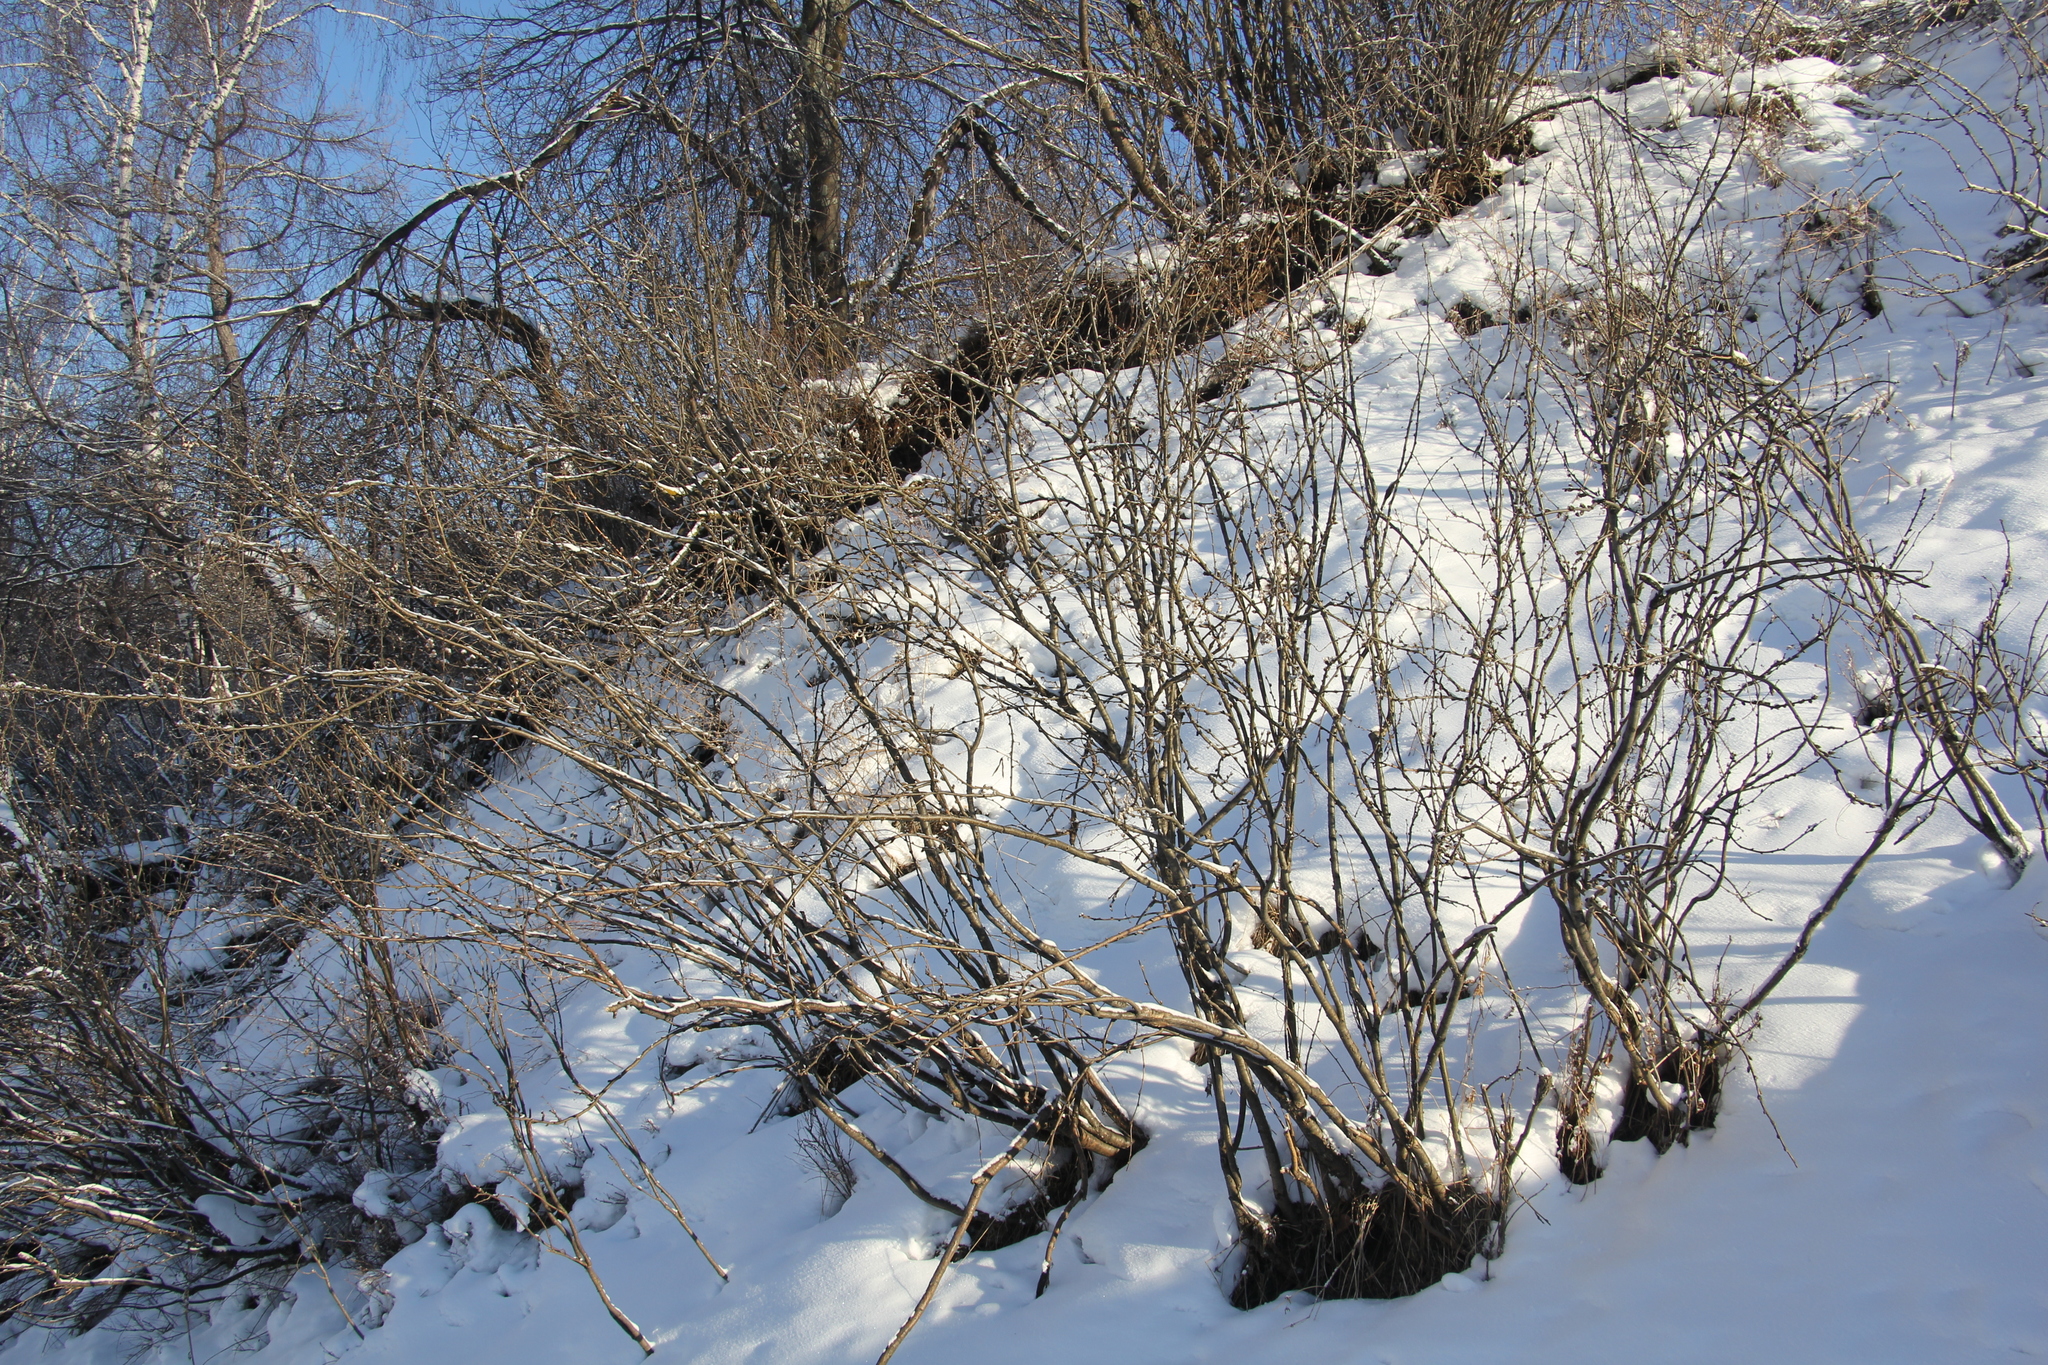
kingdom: Plantae
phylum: Tracheophyta
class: Magnoliopsida
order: Fabales
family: Fabaceae
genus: Caragana
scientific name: Caragana arborescens
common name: Siberian peashrub
